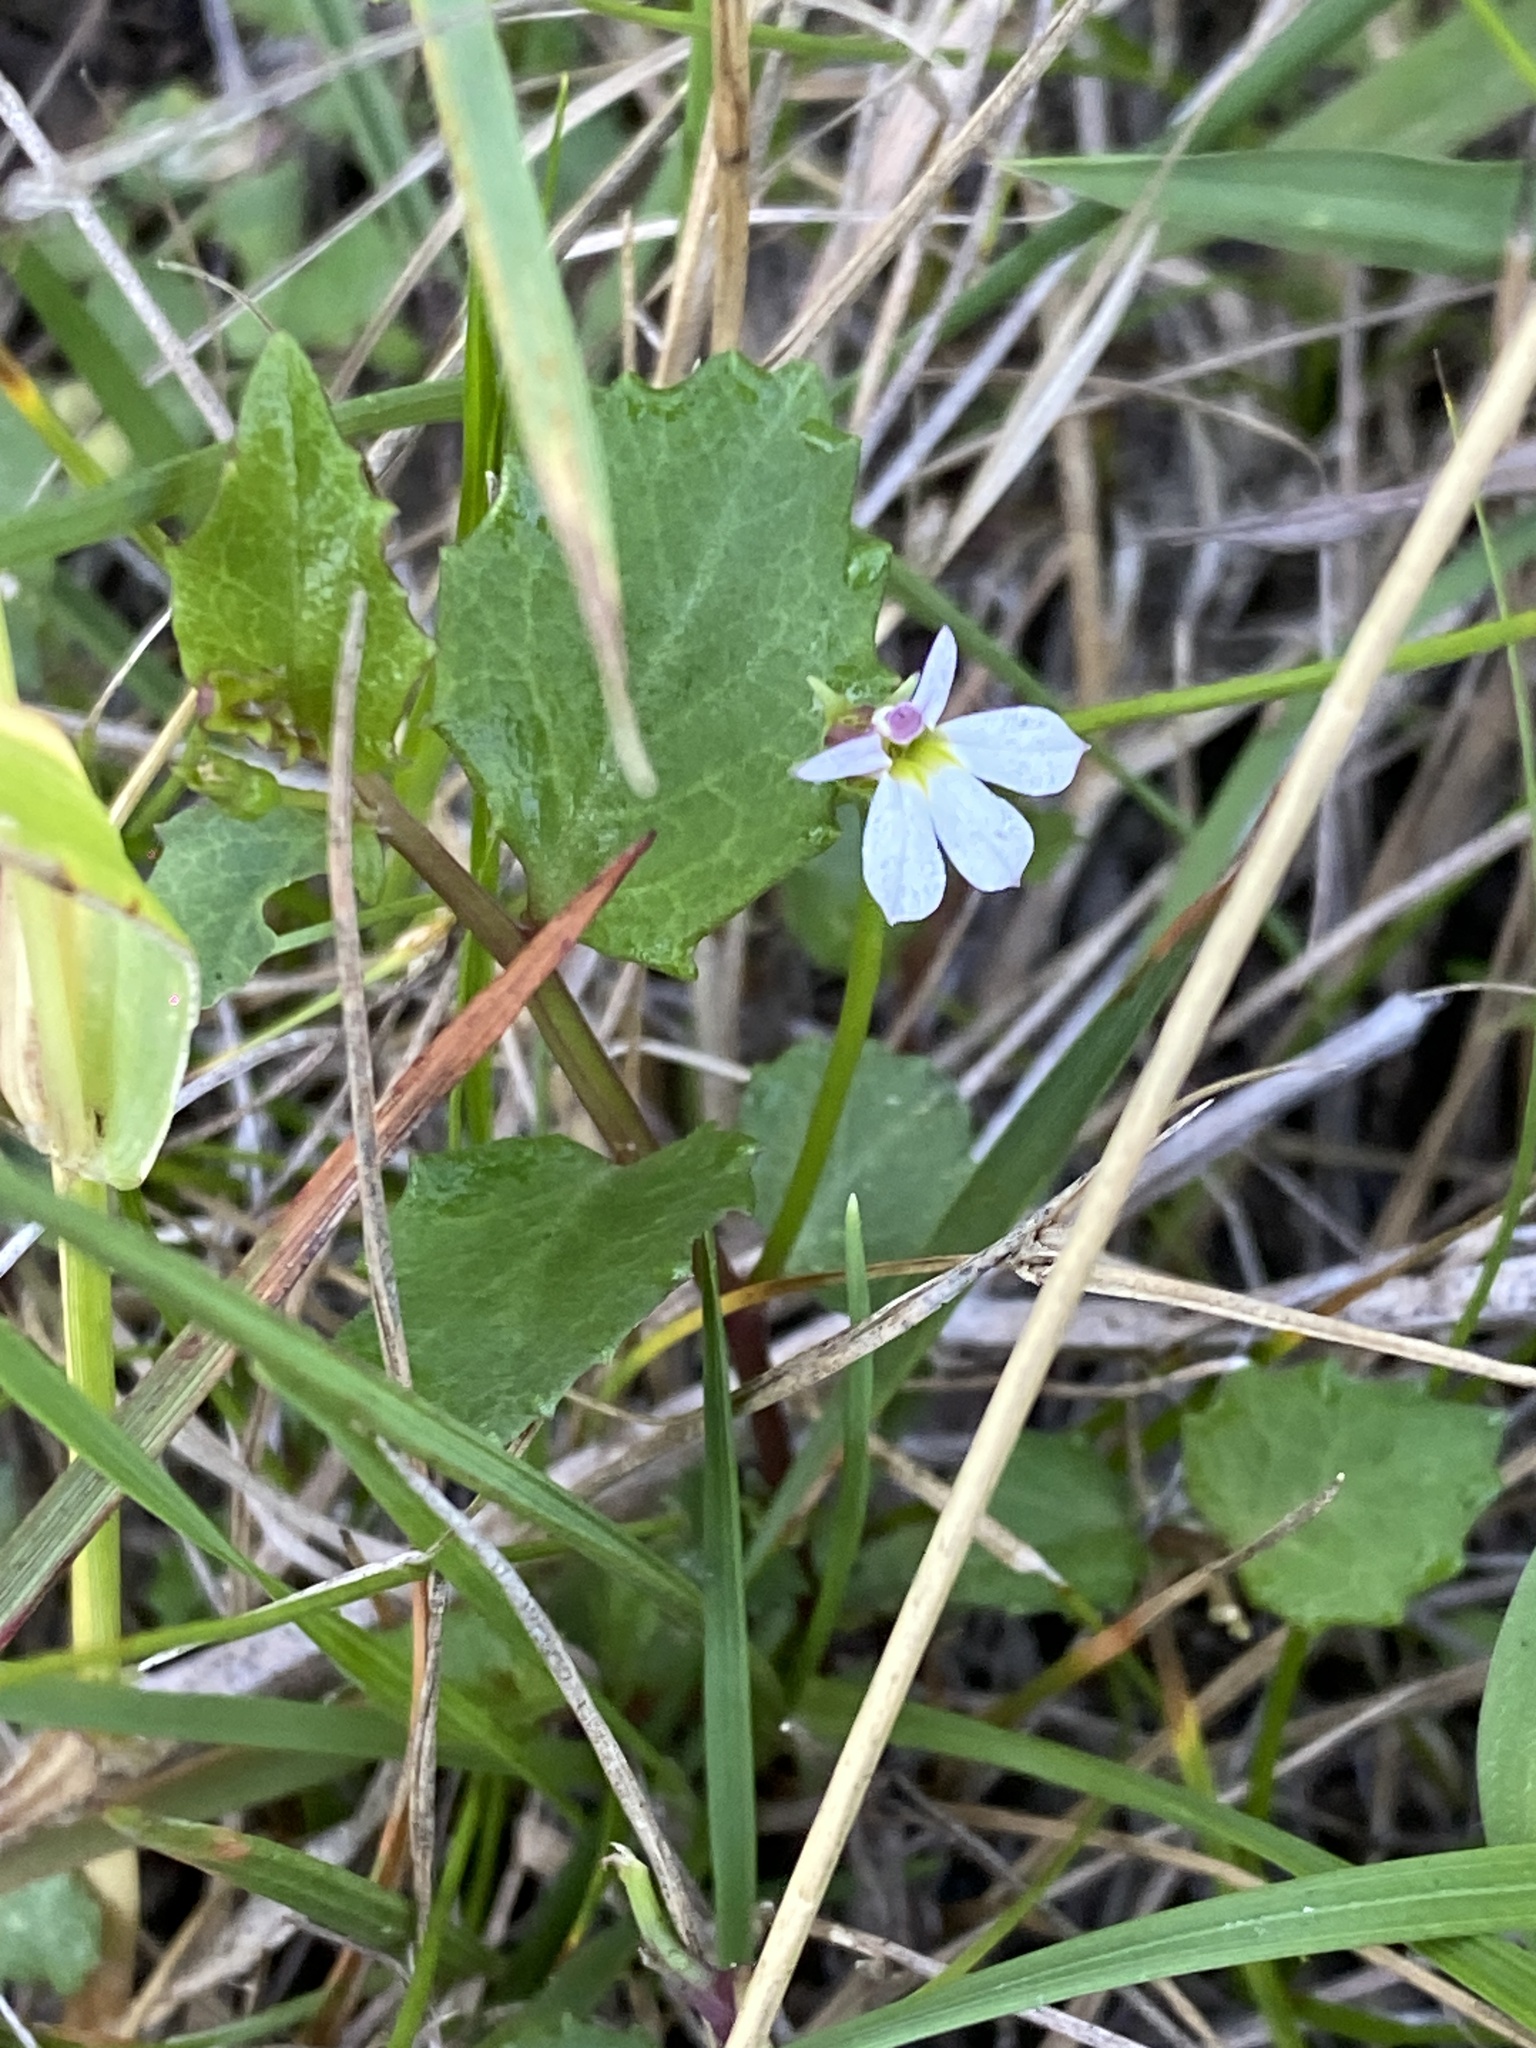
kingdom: Plantae
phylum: Tracheophyta
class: Magnoliopsida
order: Asterales
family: Campanulaceae
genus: Lobelia
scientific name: Lobelia purpurascens
